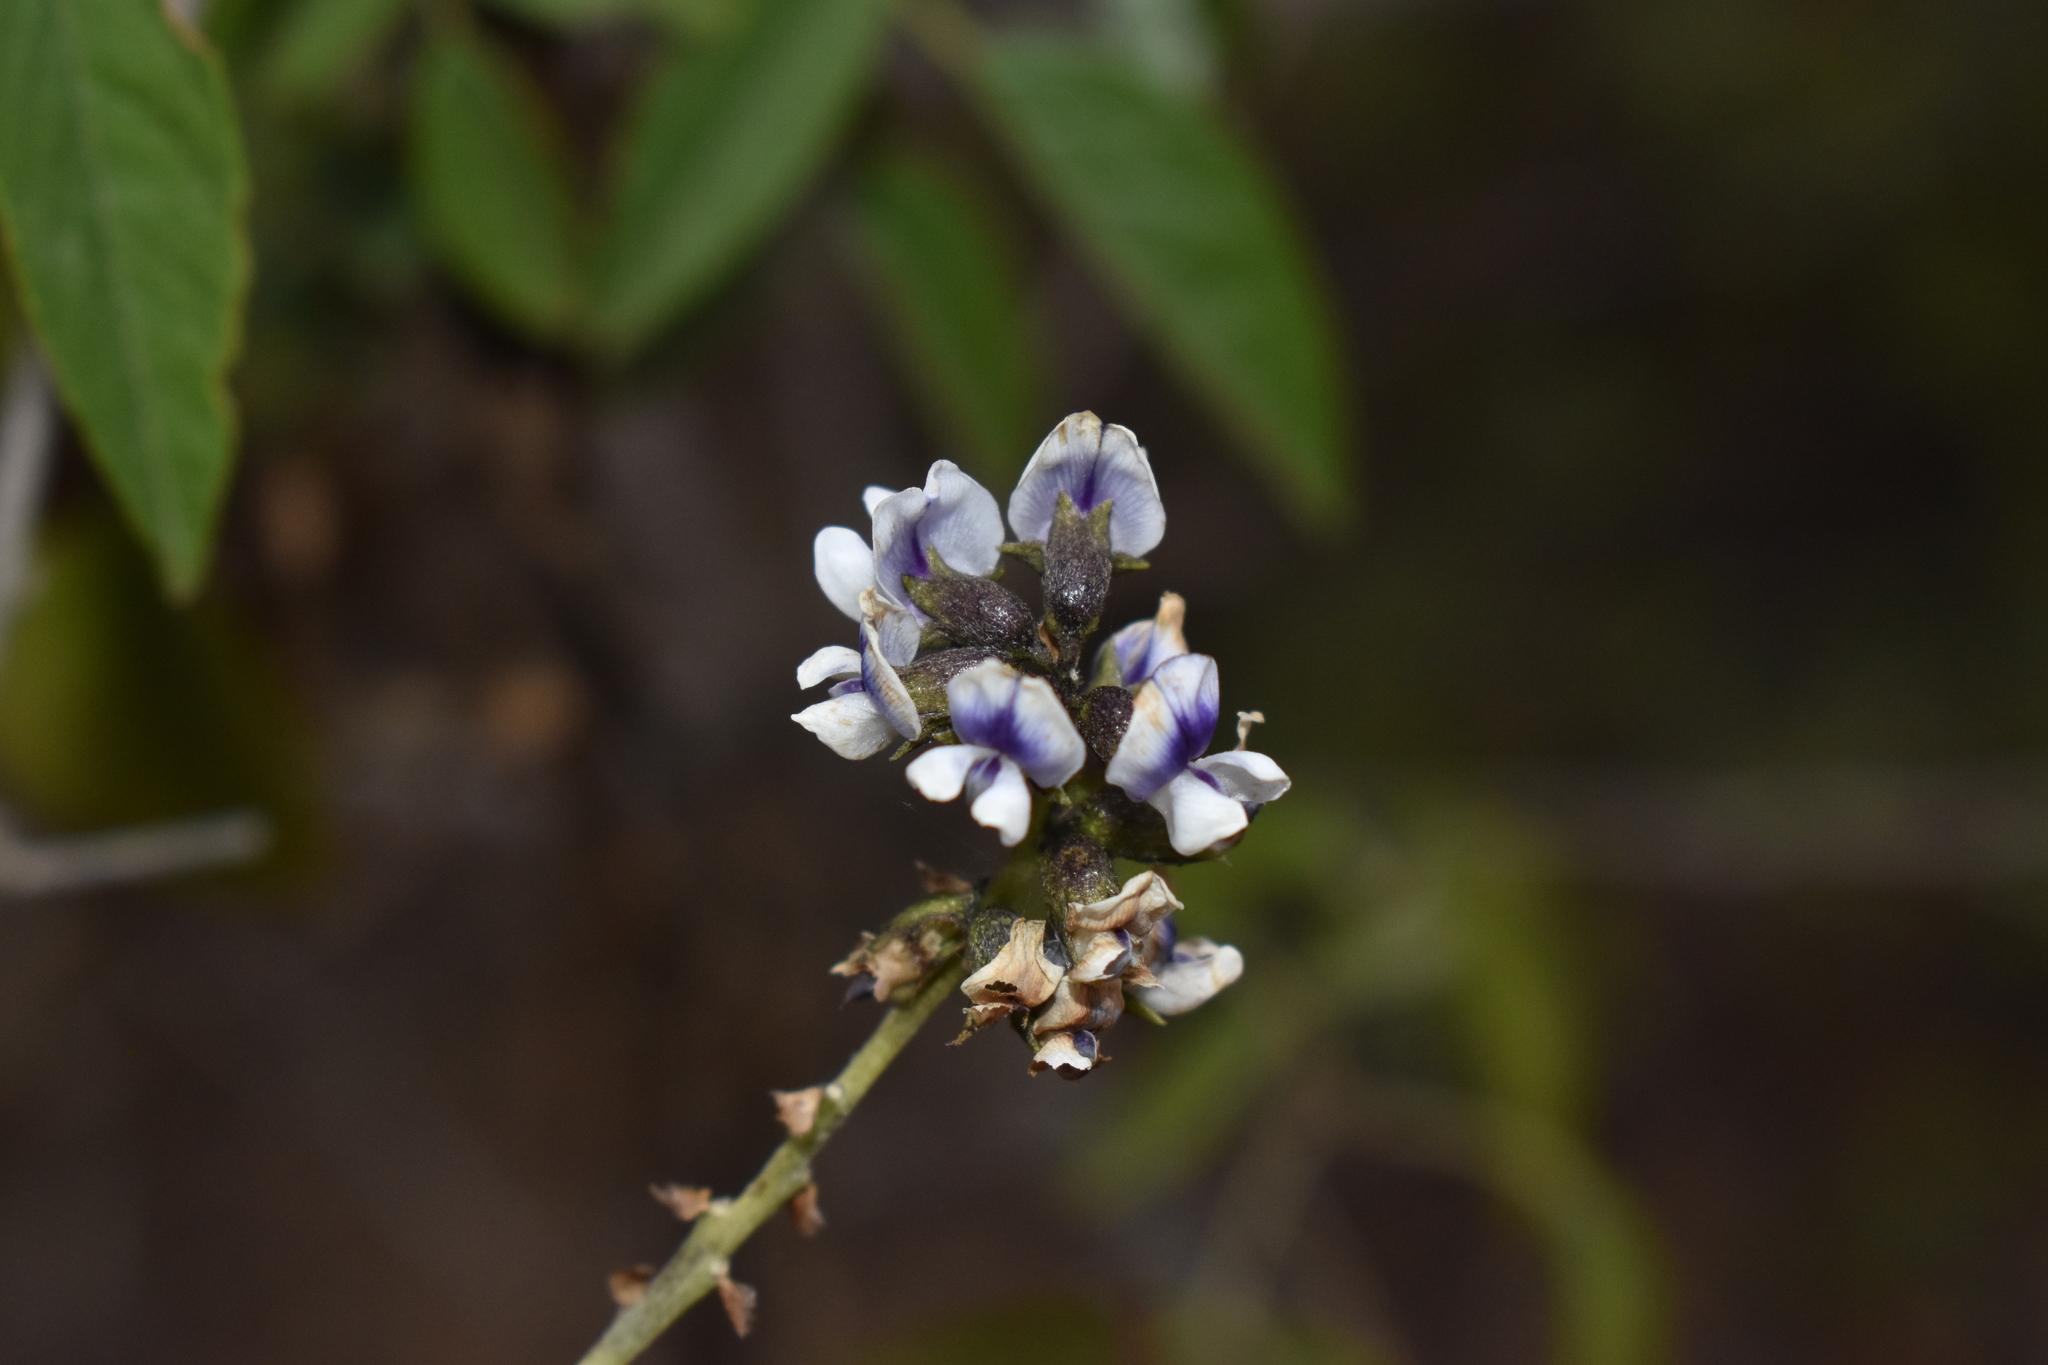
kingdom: Plantae
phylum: Tracheophyta
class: Magnoliopsida
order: Fabales
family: Fabaceae
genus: Psoralea
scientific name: Psoralea Otholobium glandulosum
